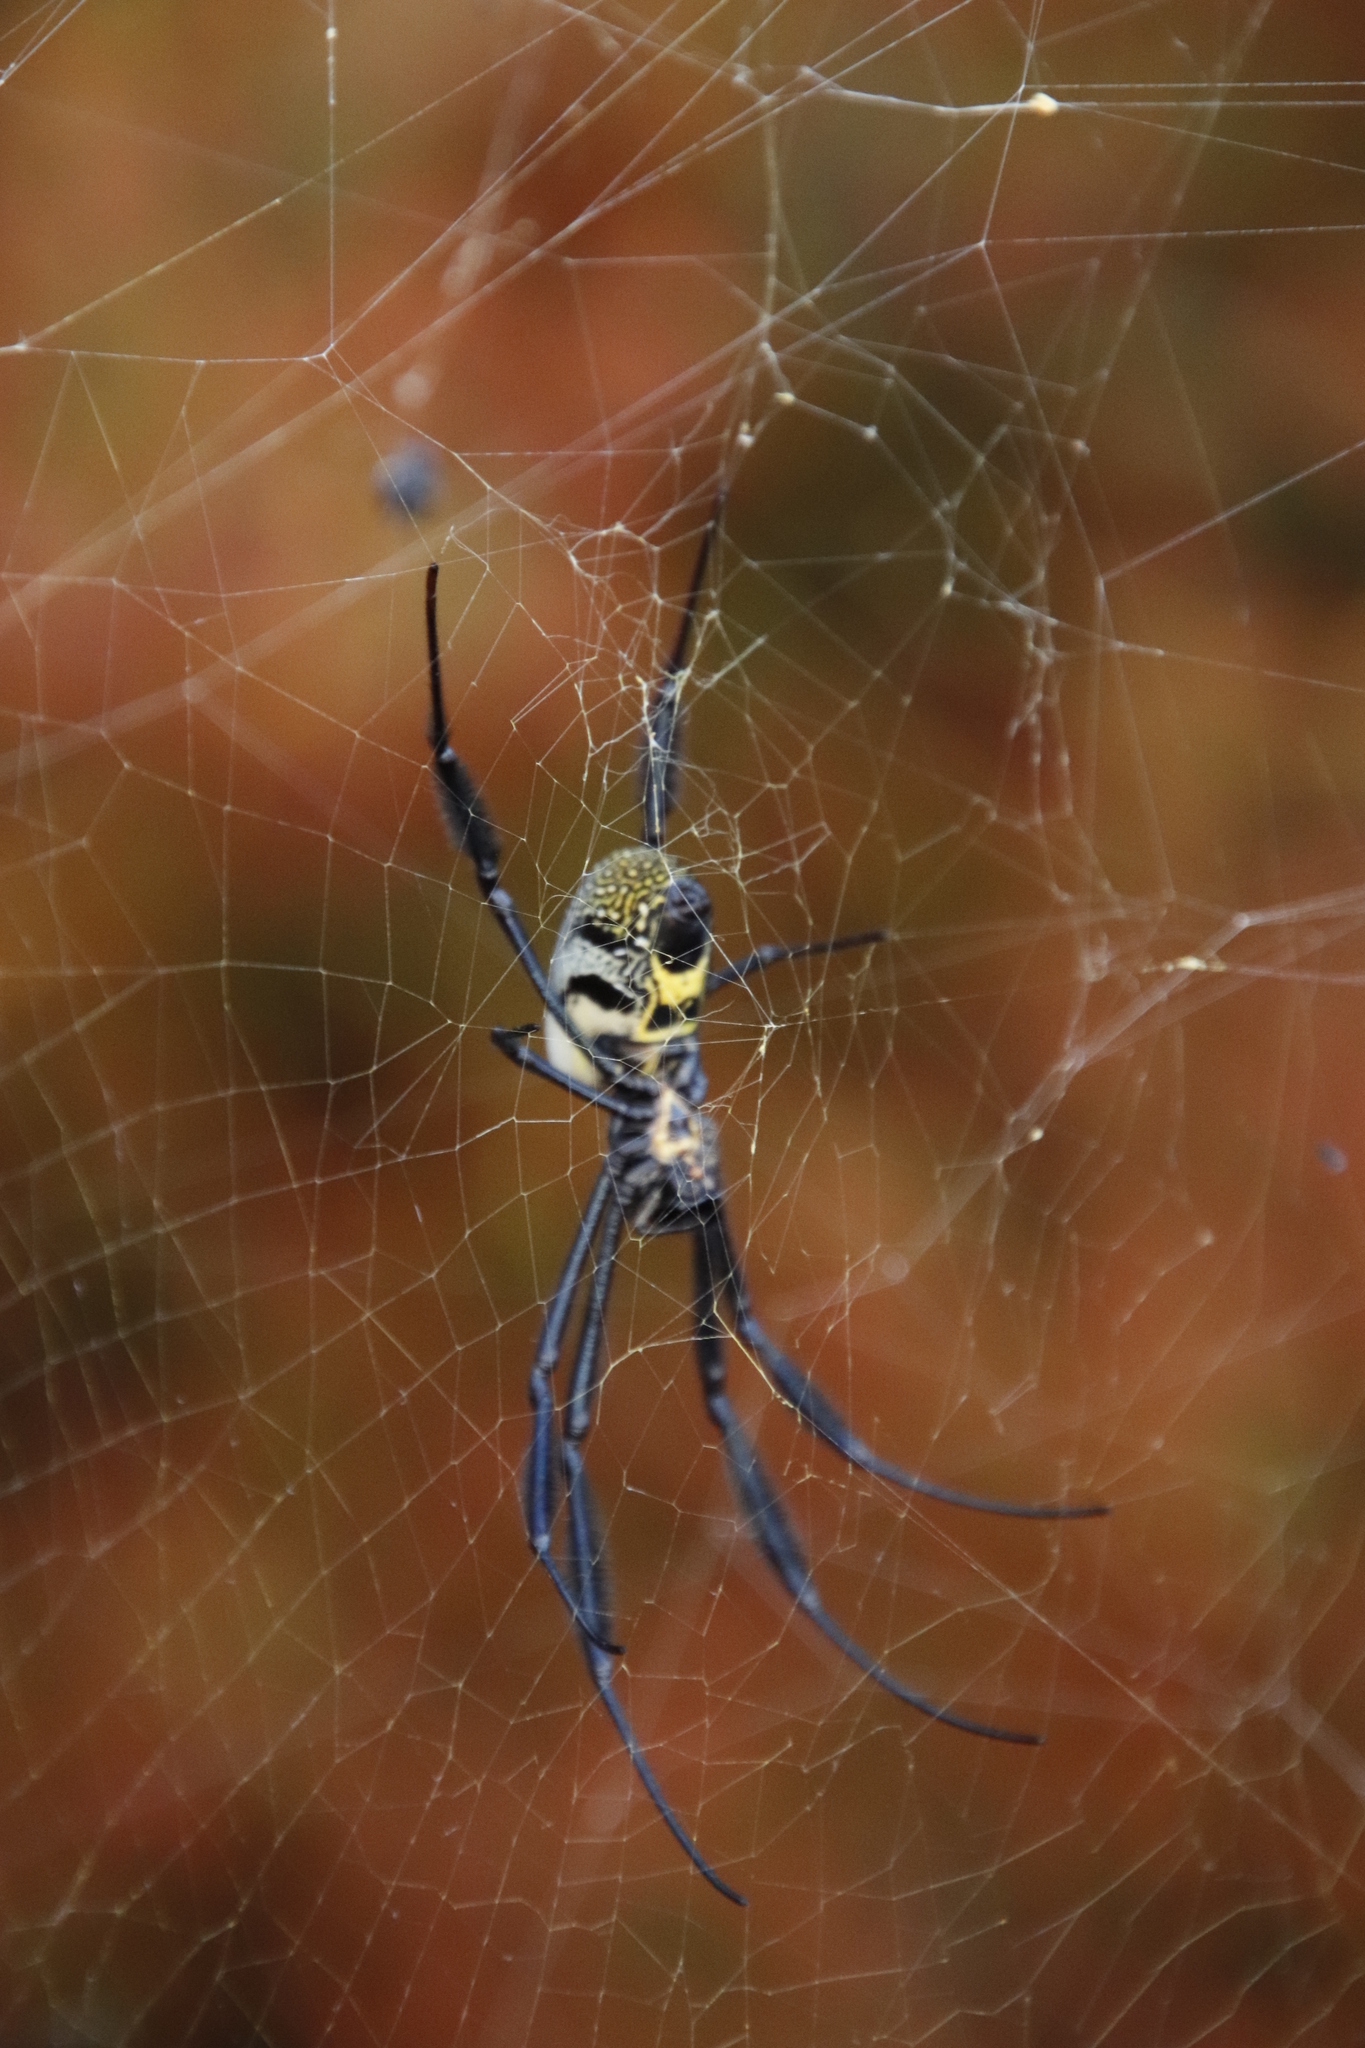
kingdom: Animalia
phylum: Arthropoda
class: Arachnida
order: Araneae
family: Araneidae
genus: Trichonephila
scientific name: Trichonephila fenestrata
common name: Hairy golden orb weaver
